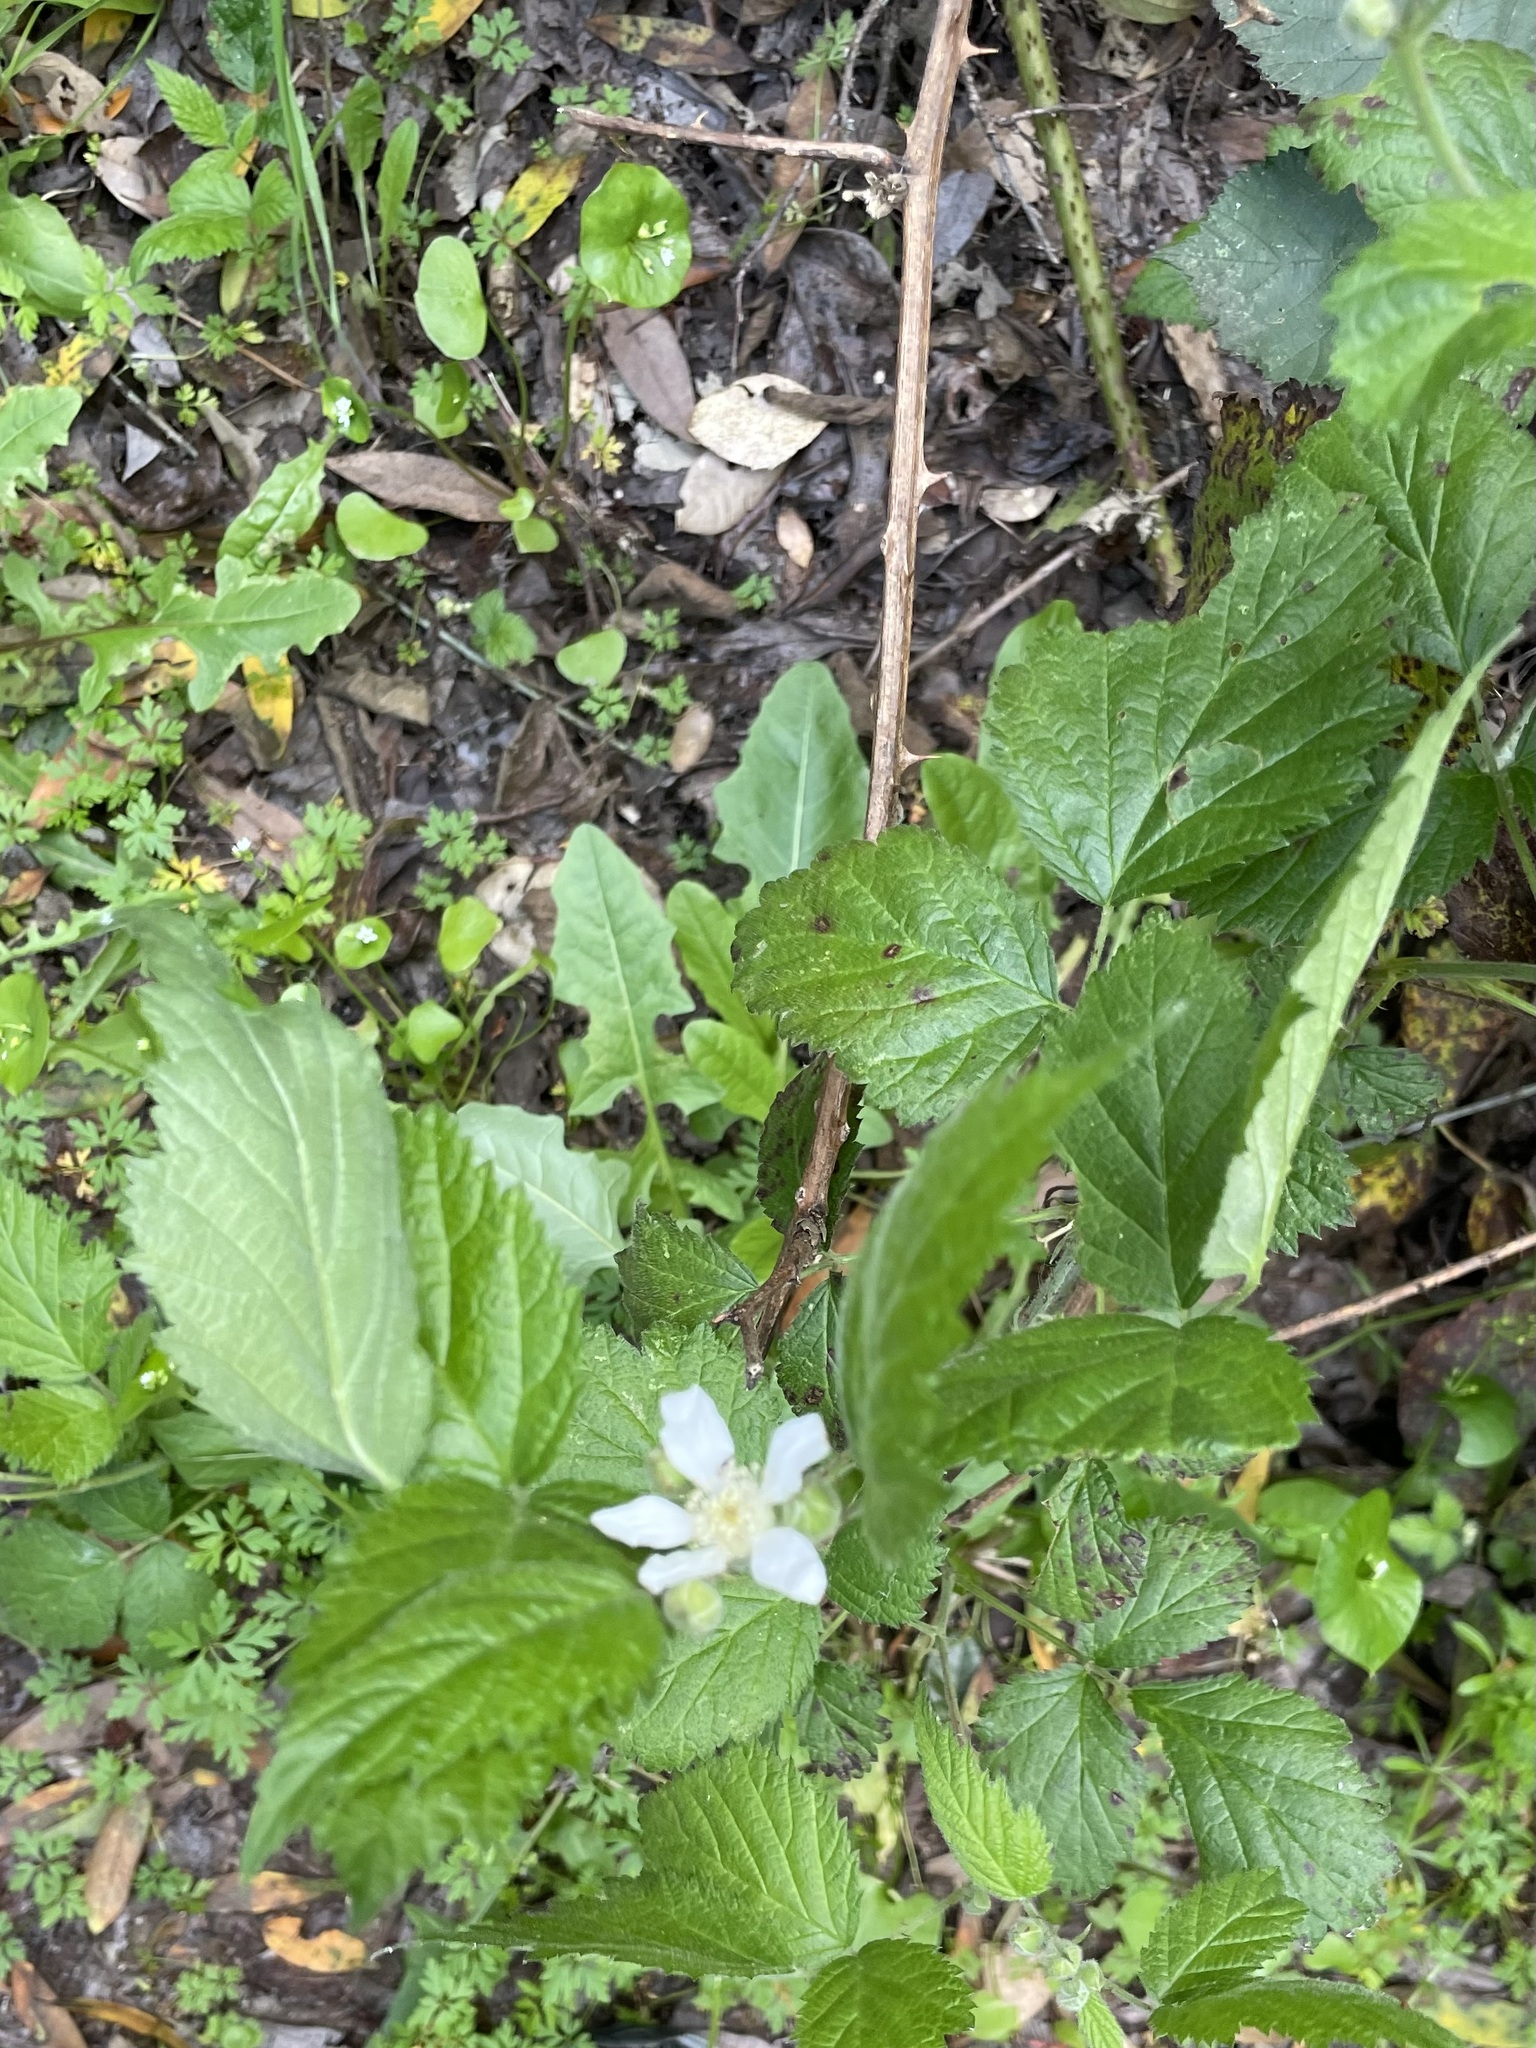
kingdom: Plantae
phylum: Tracheophyta
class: Magnoliopsida
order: Rosales
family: Rosaceae
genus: Rubus
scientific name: Rubus ursinus
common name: Pacific blackberry
